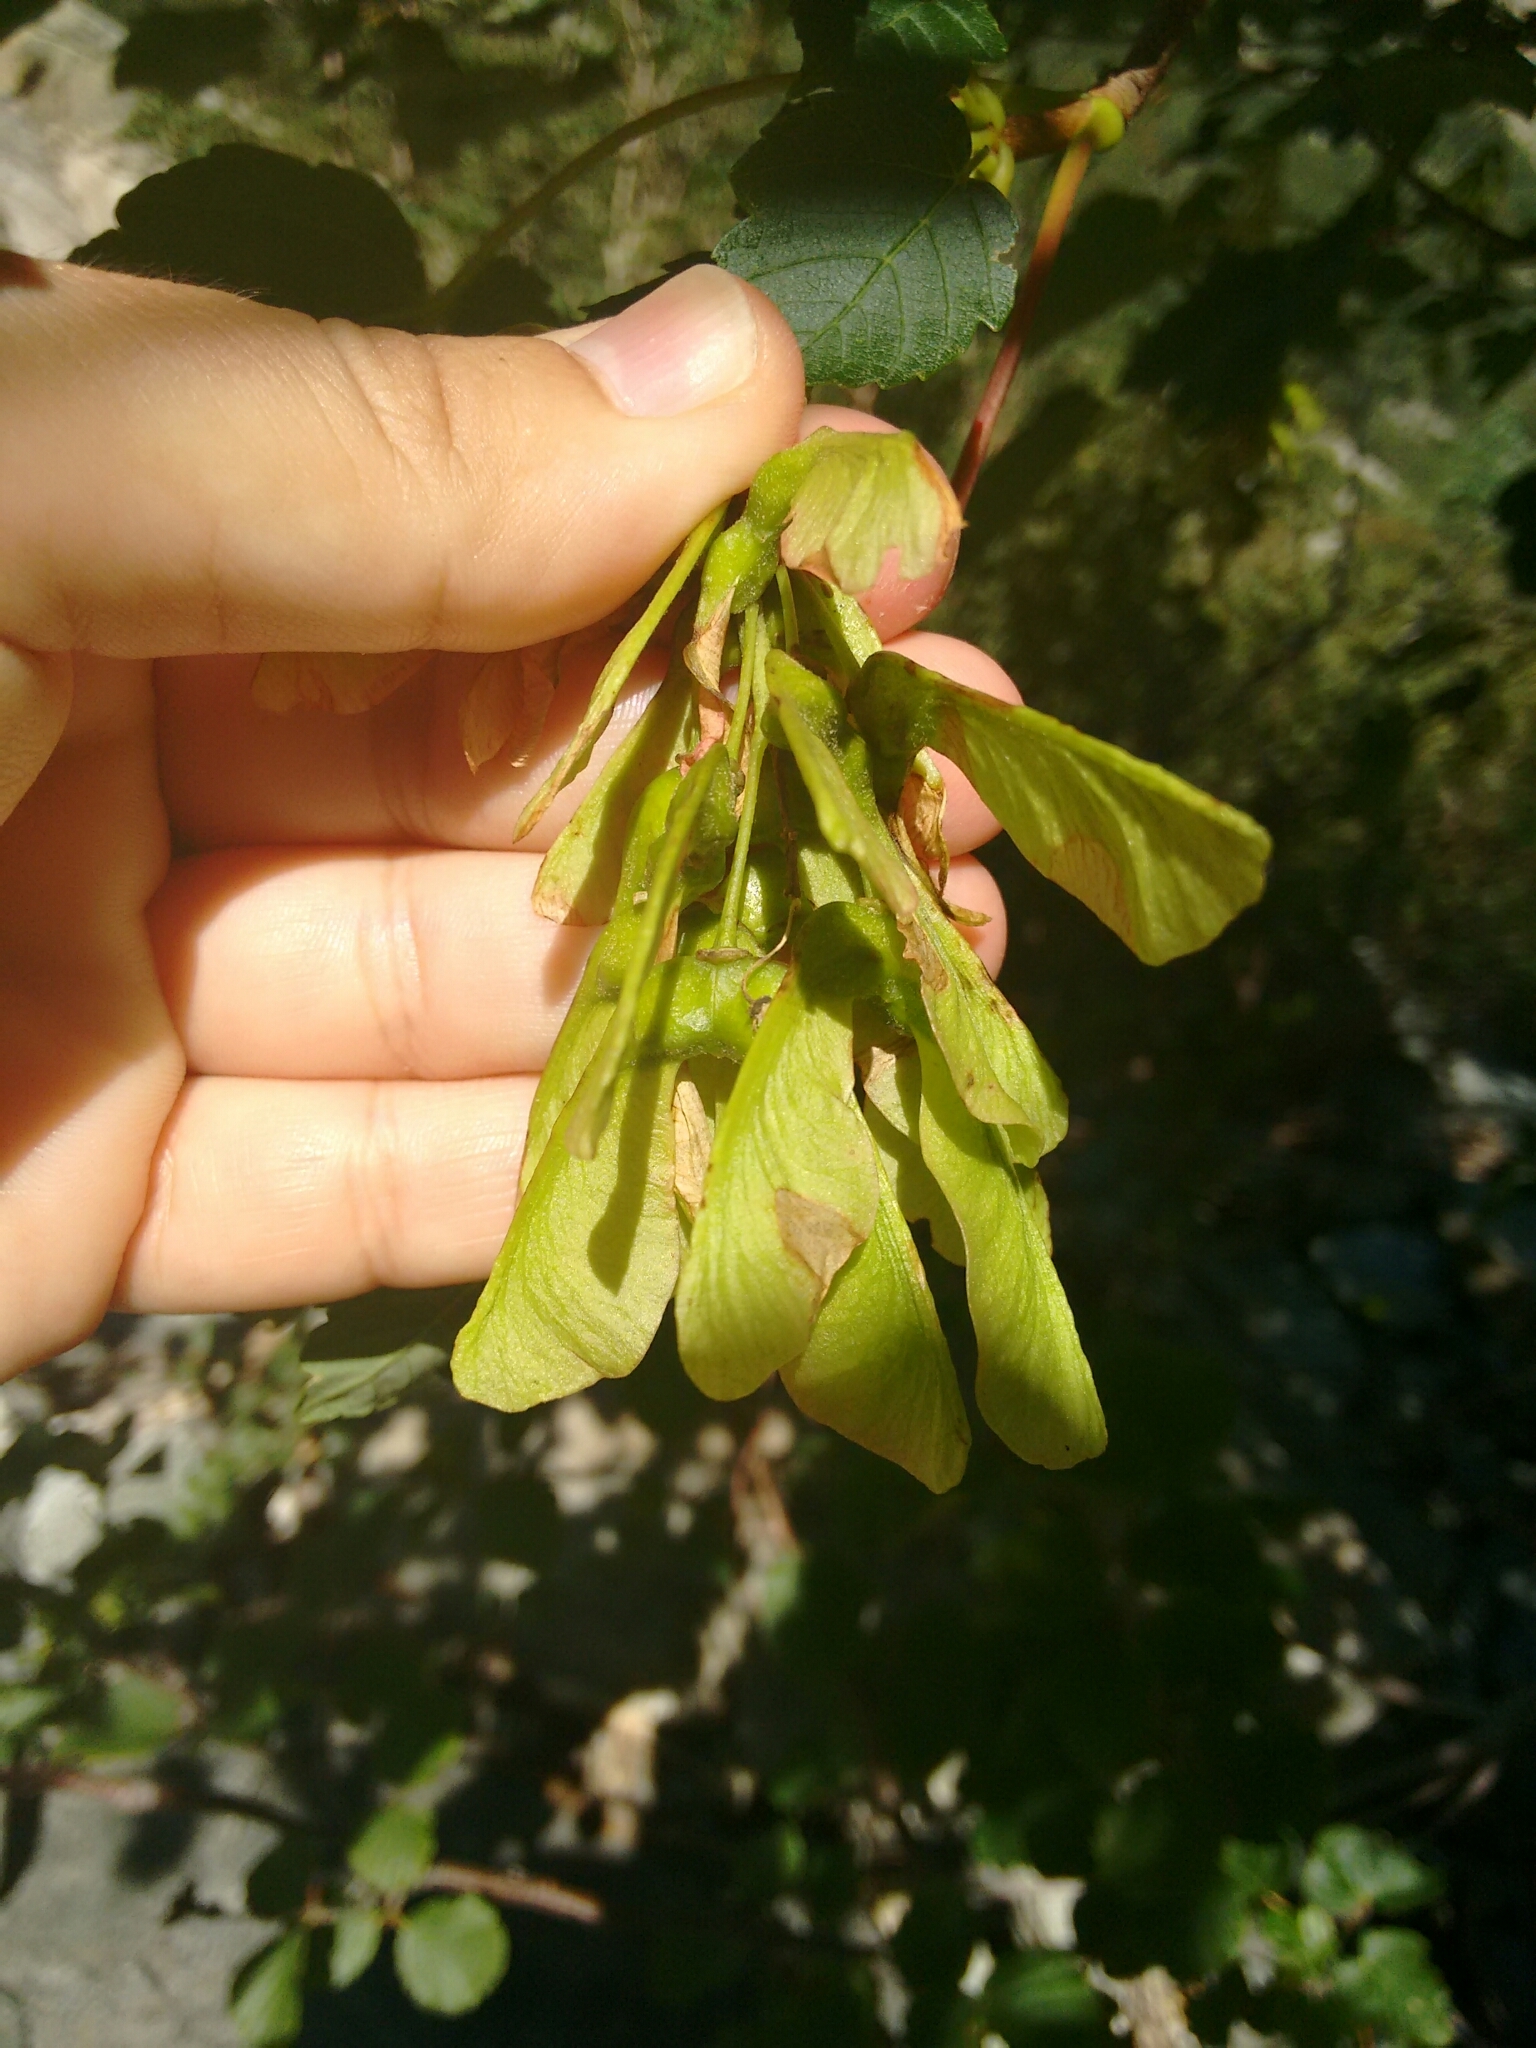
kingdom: Plantae
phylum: Tracheophyta
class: Magnoliopsida
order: Sapindales
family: Sapindaceae
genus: Acer
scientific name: Acer pseudoplatanus
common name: Sycamore
